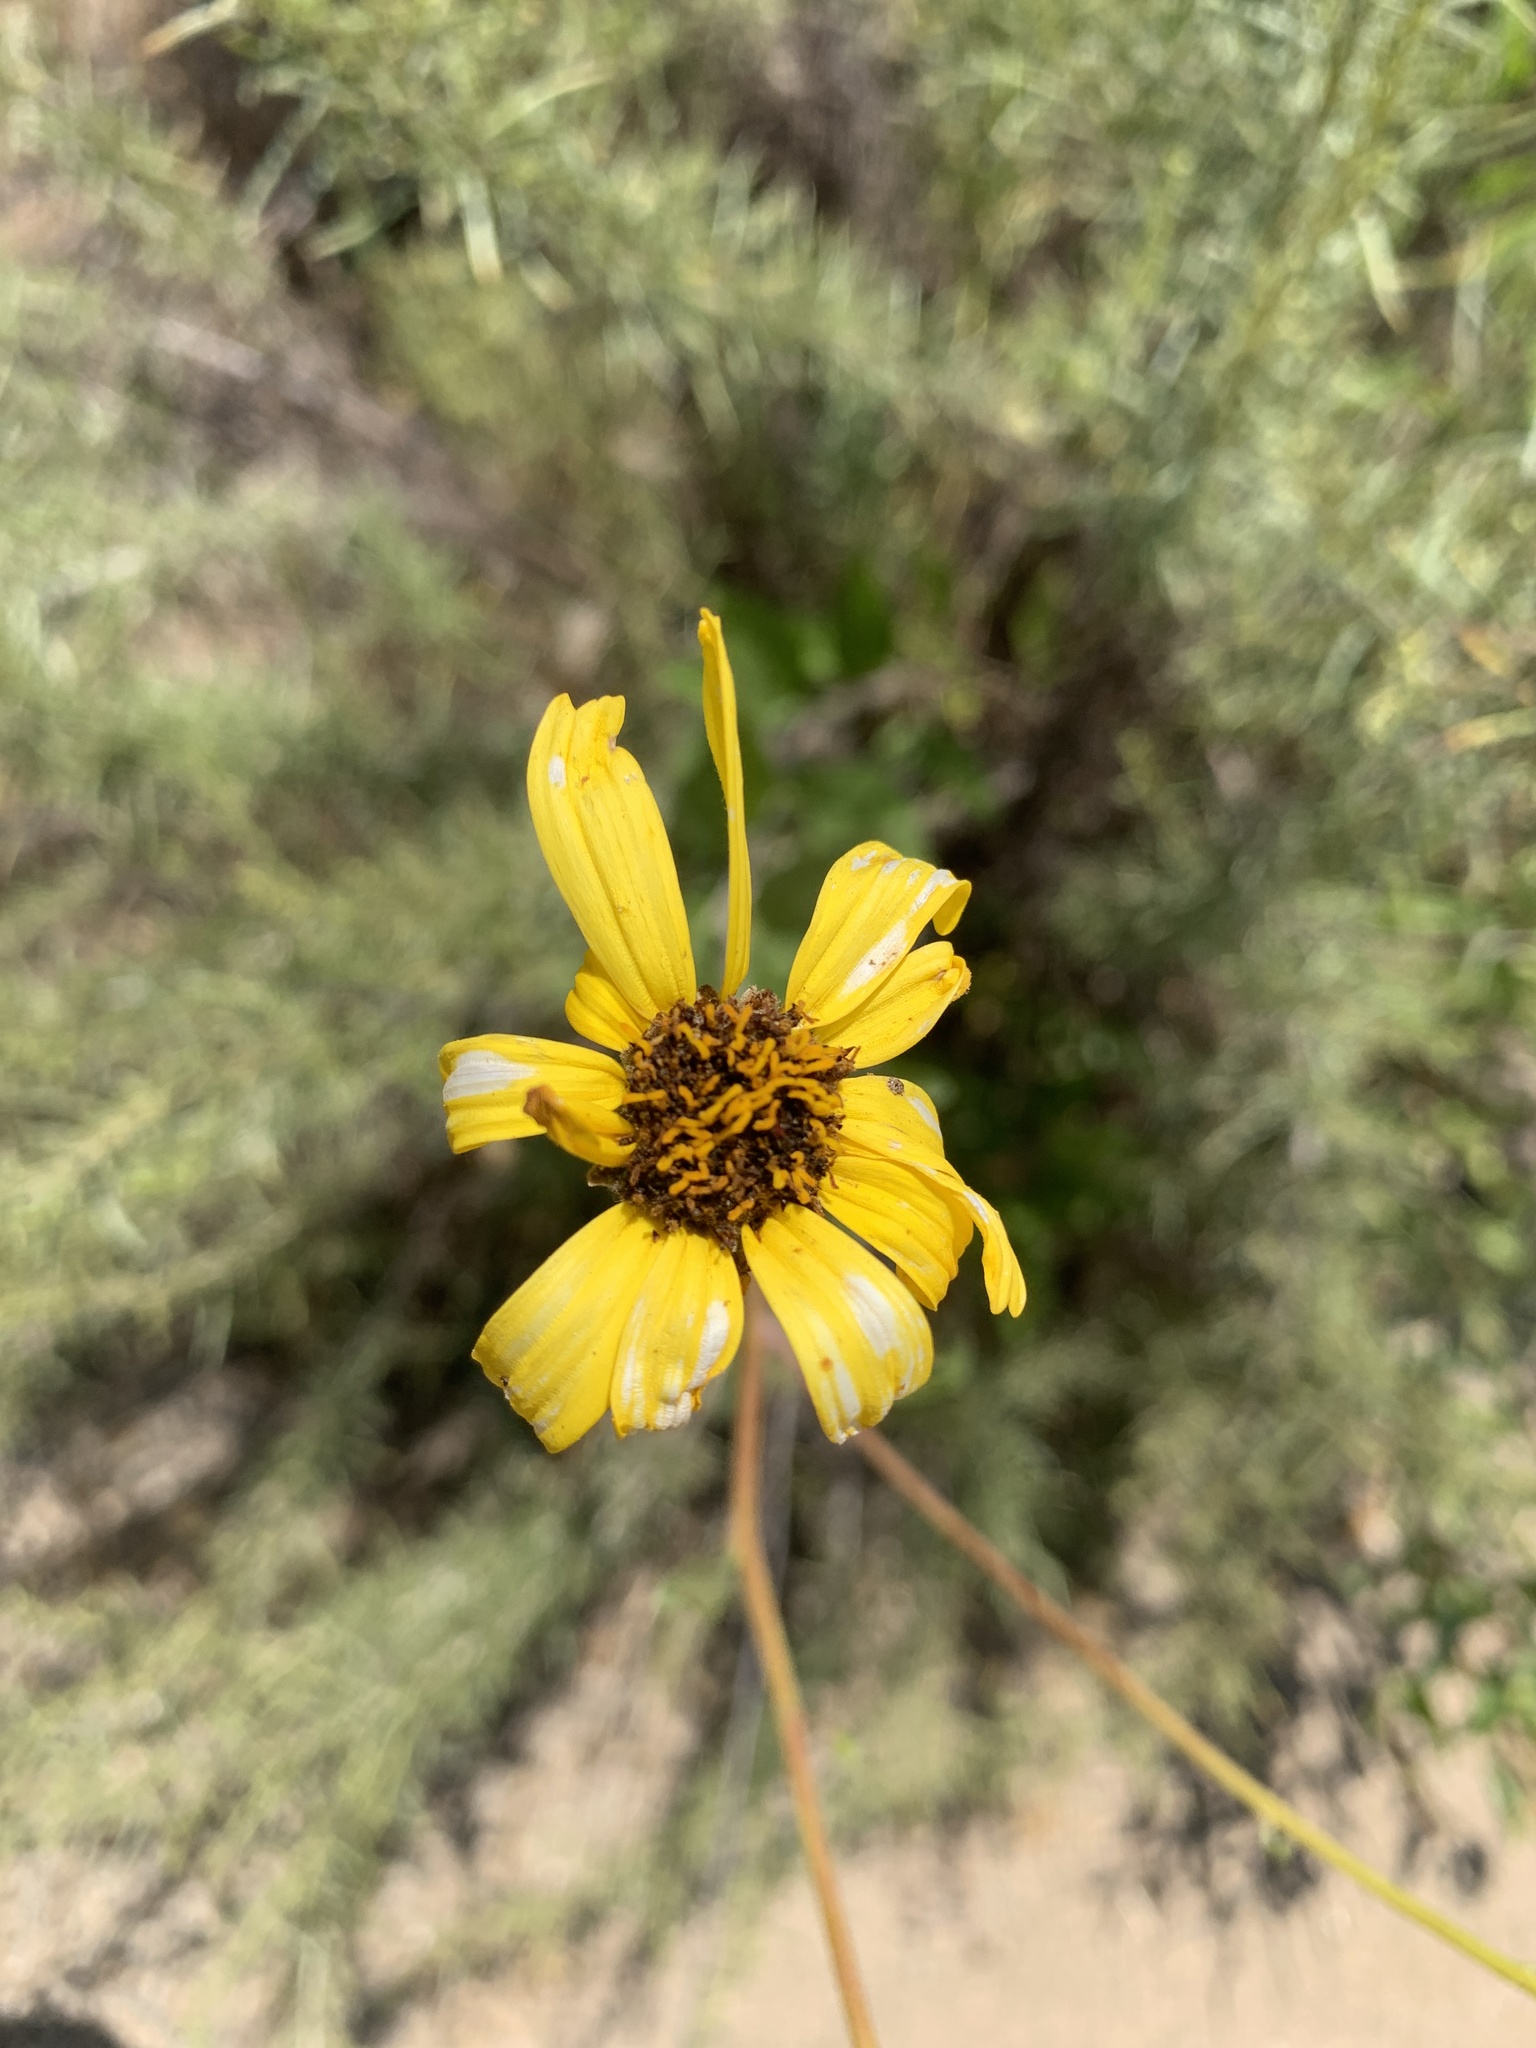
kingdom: Plantae
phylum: Tracheophyta
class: Magnoliopsida
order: Asterales
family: Asteraceae
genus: Encelia
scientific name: Encelia californica
